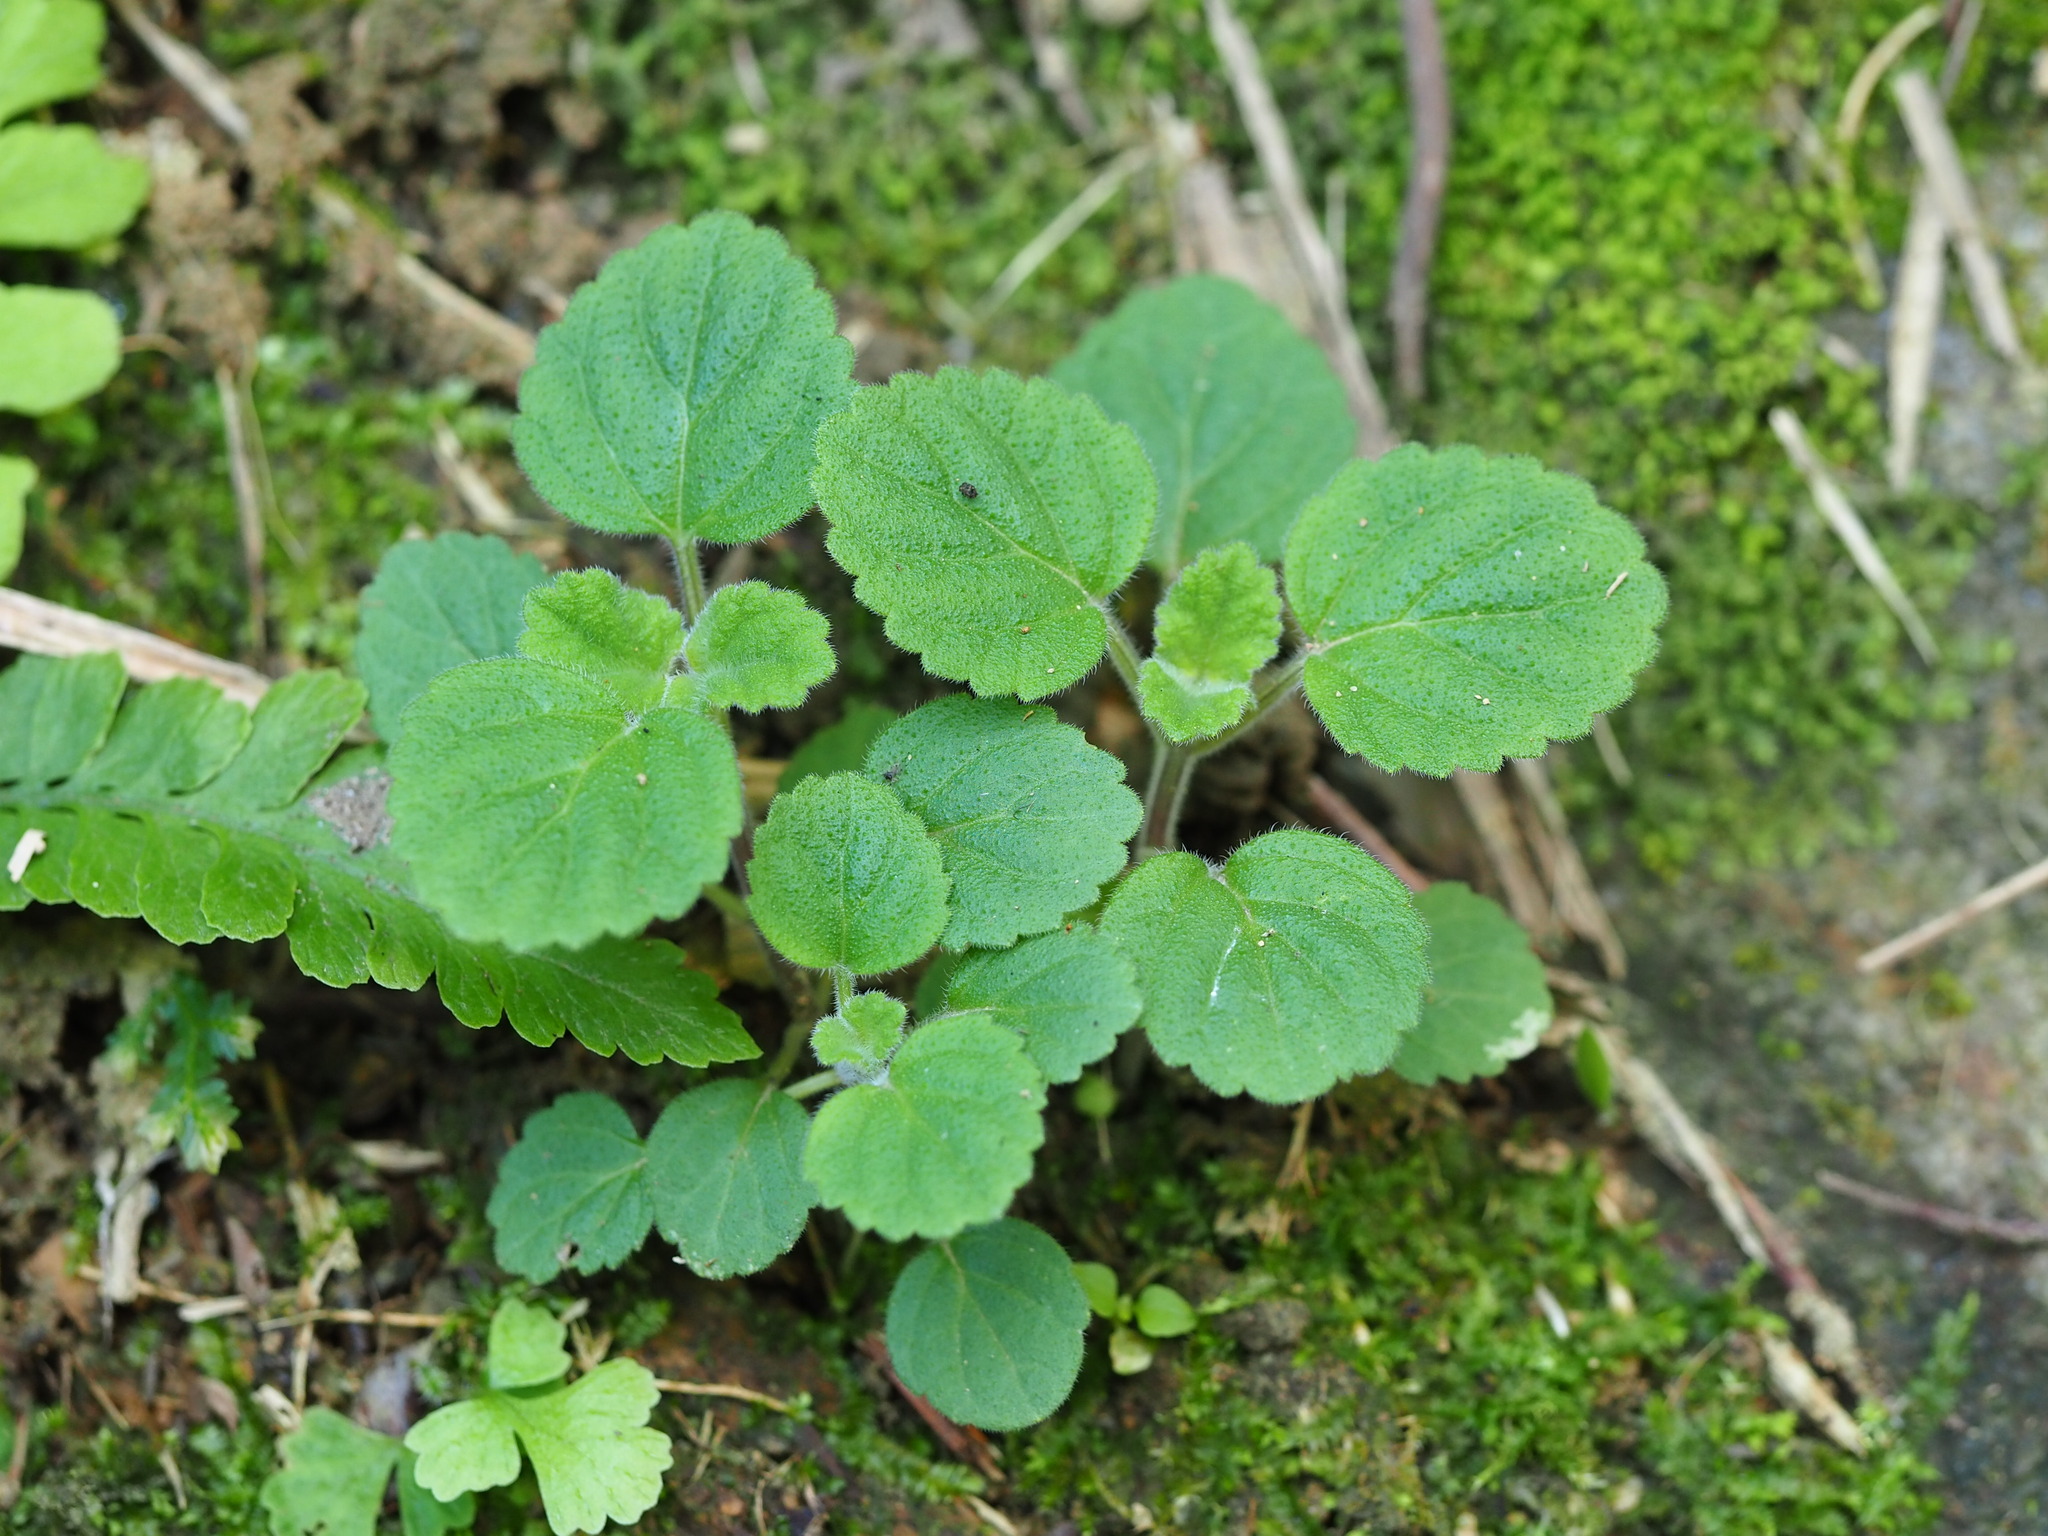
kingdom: Plantae
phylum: Tracheophyta
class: Magnoliopsida
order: Lamiales
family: Lamiaceae
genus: Scutellaria
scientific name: Scutellaria indica
